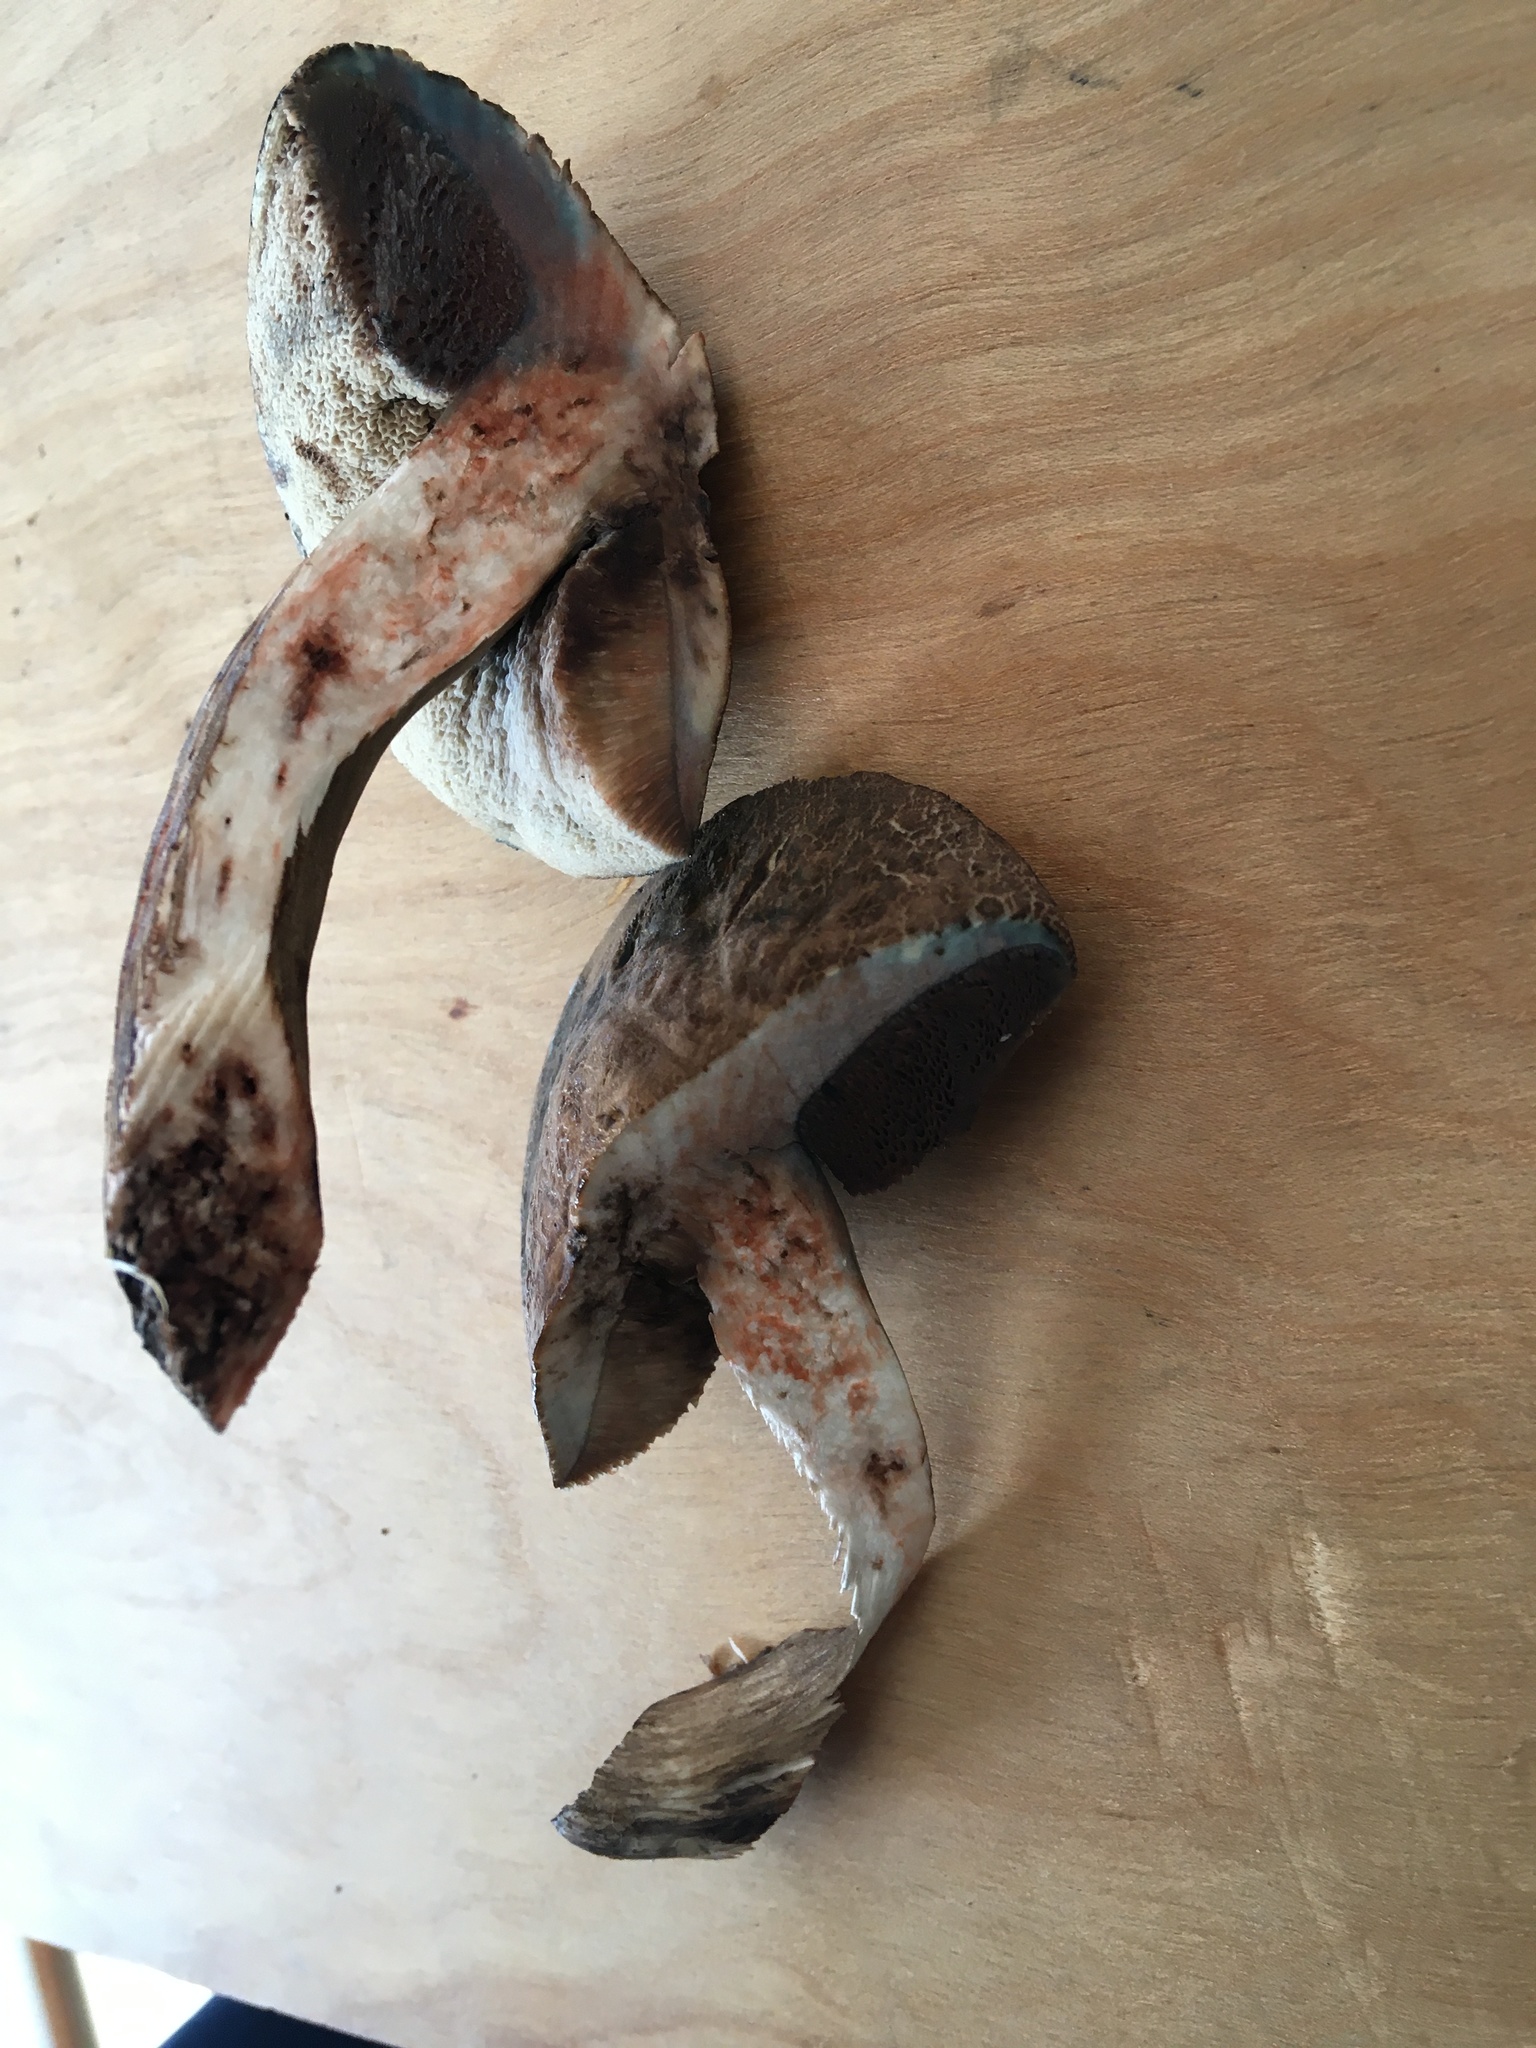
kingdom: Fungi
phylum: Basidiomycota
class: Agaricomycetes
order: Boletales
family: Boletaceae
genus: Porphyrellus
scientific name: Porphyrellus sordidus
